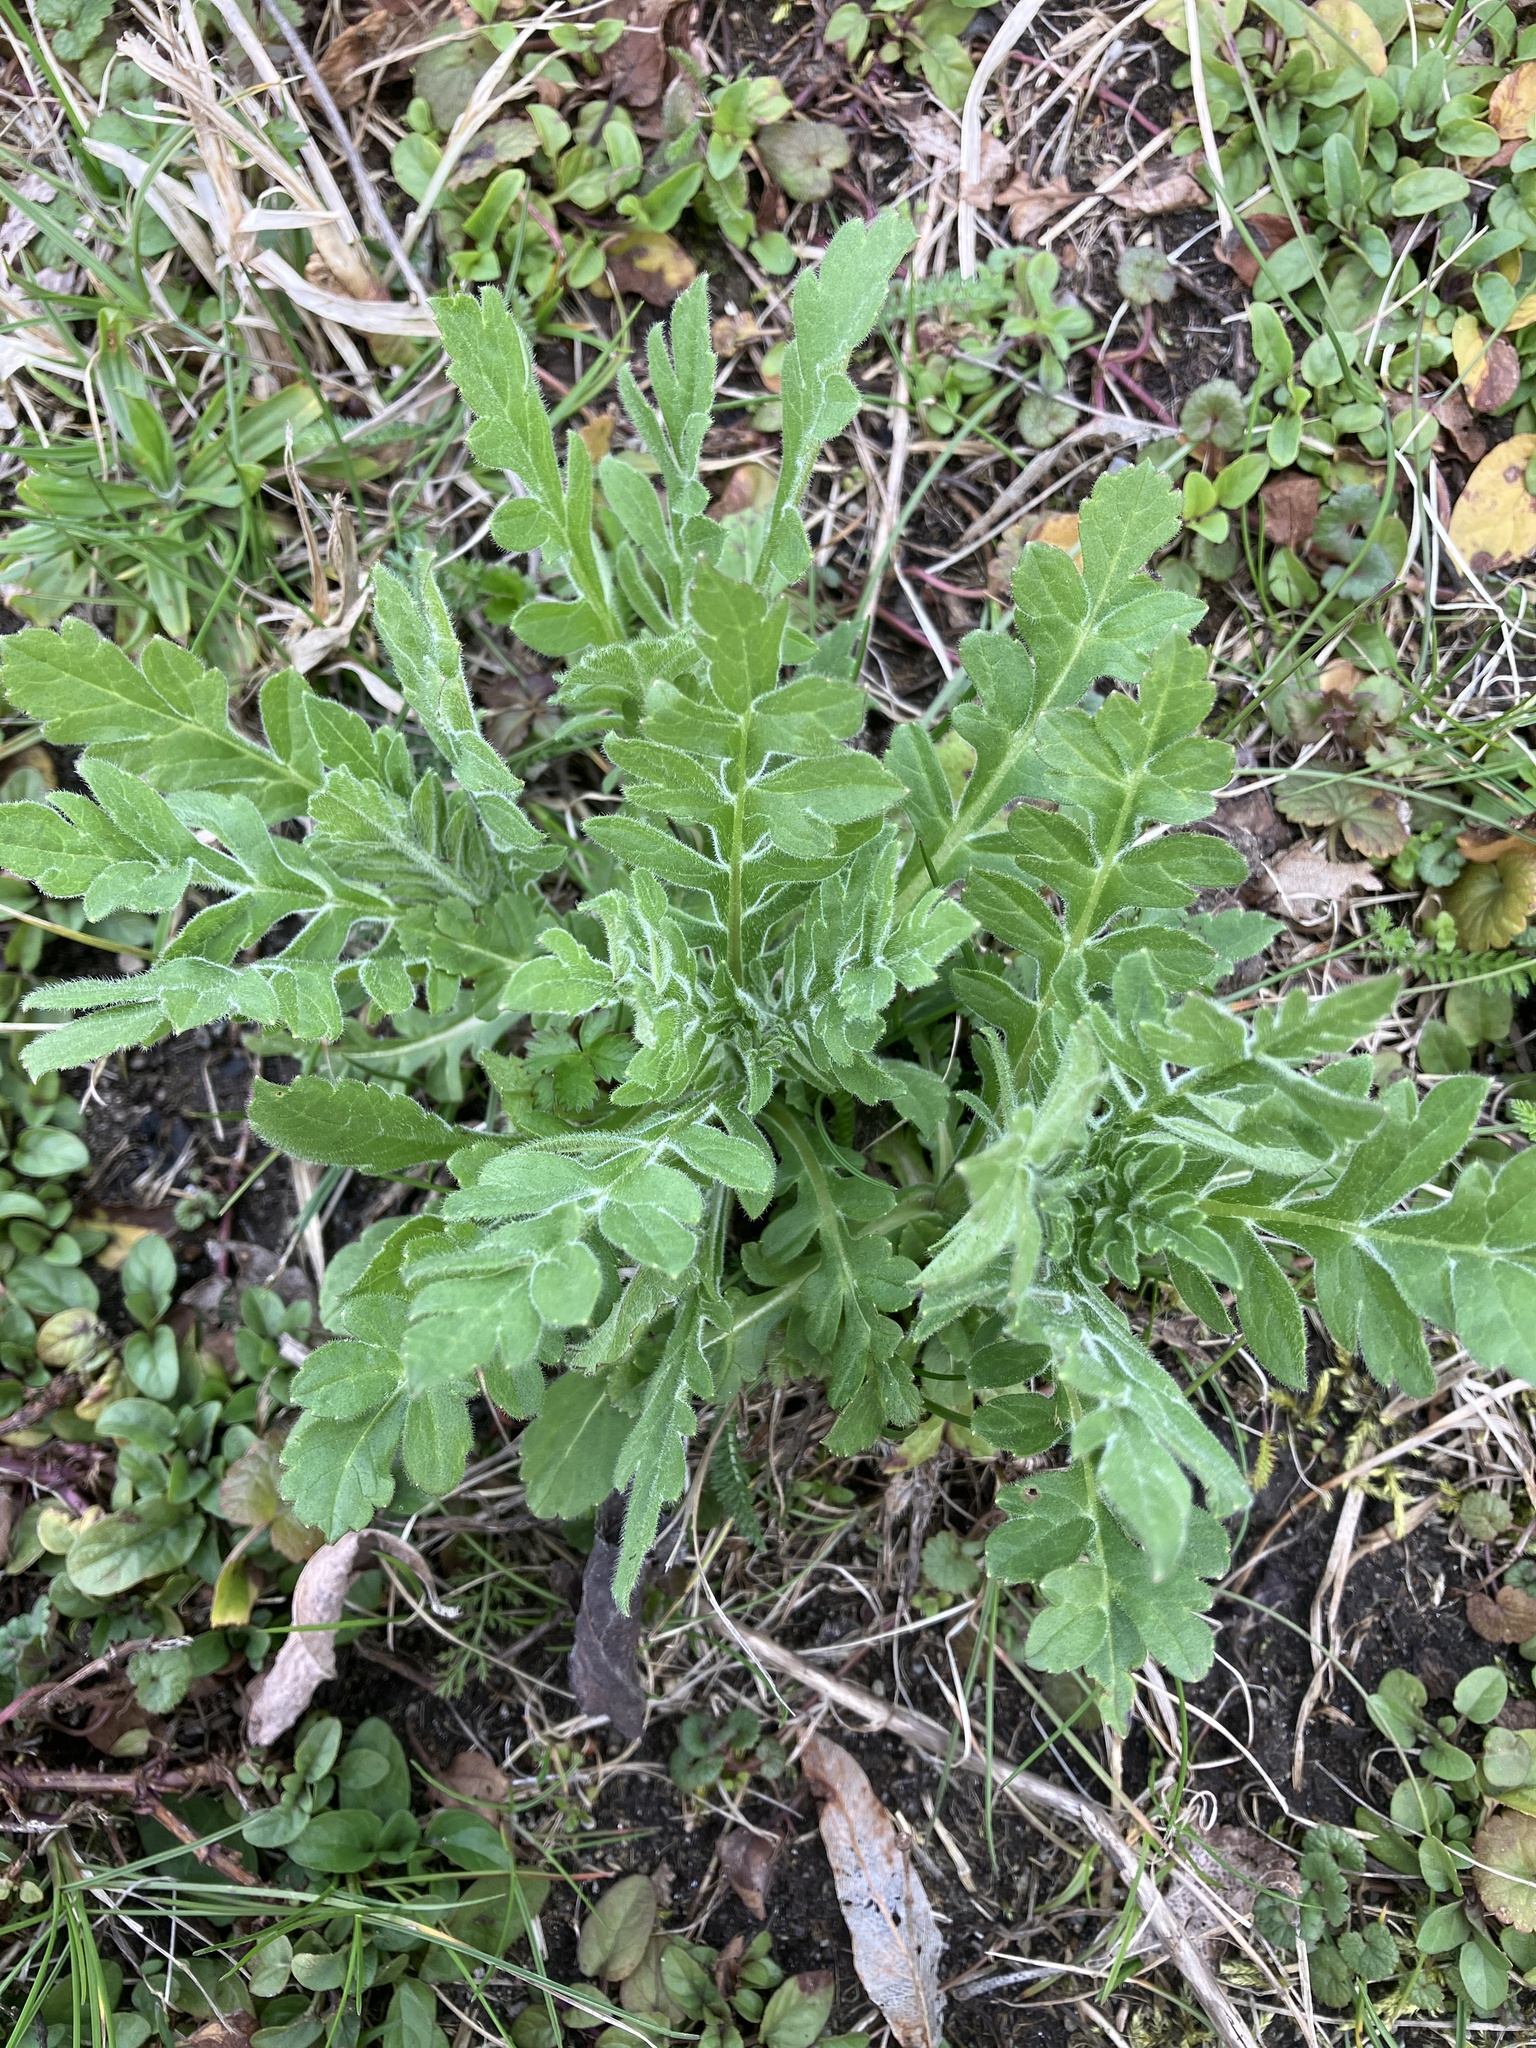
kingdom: Plantae
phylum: Tracheophyta
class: Magnoliopsida
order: Dipsacales
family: Caprifoliaceae
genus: Knautia
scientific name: Knautia arvensis
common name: Field scabiosa
